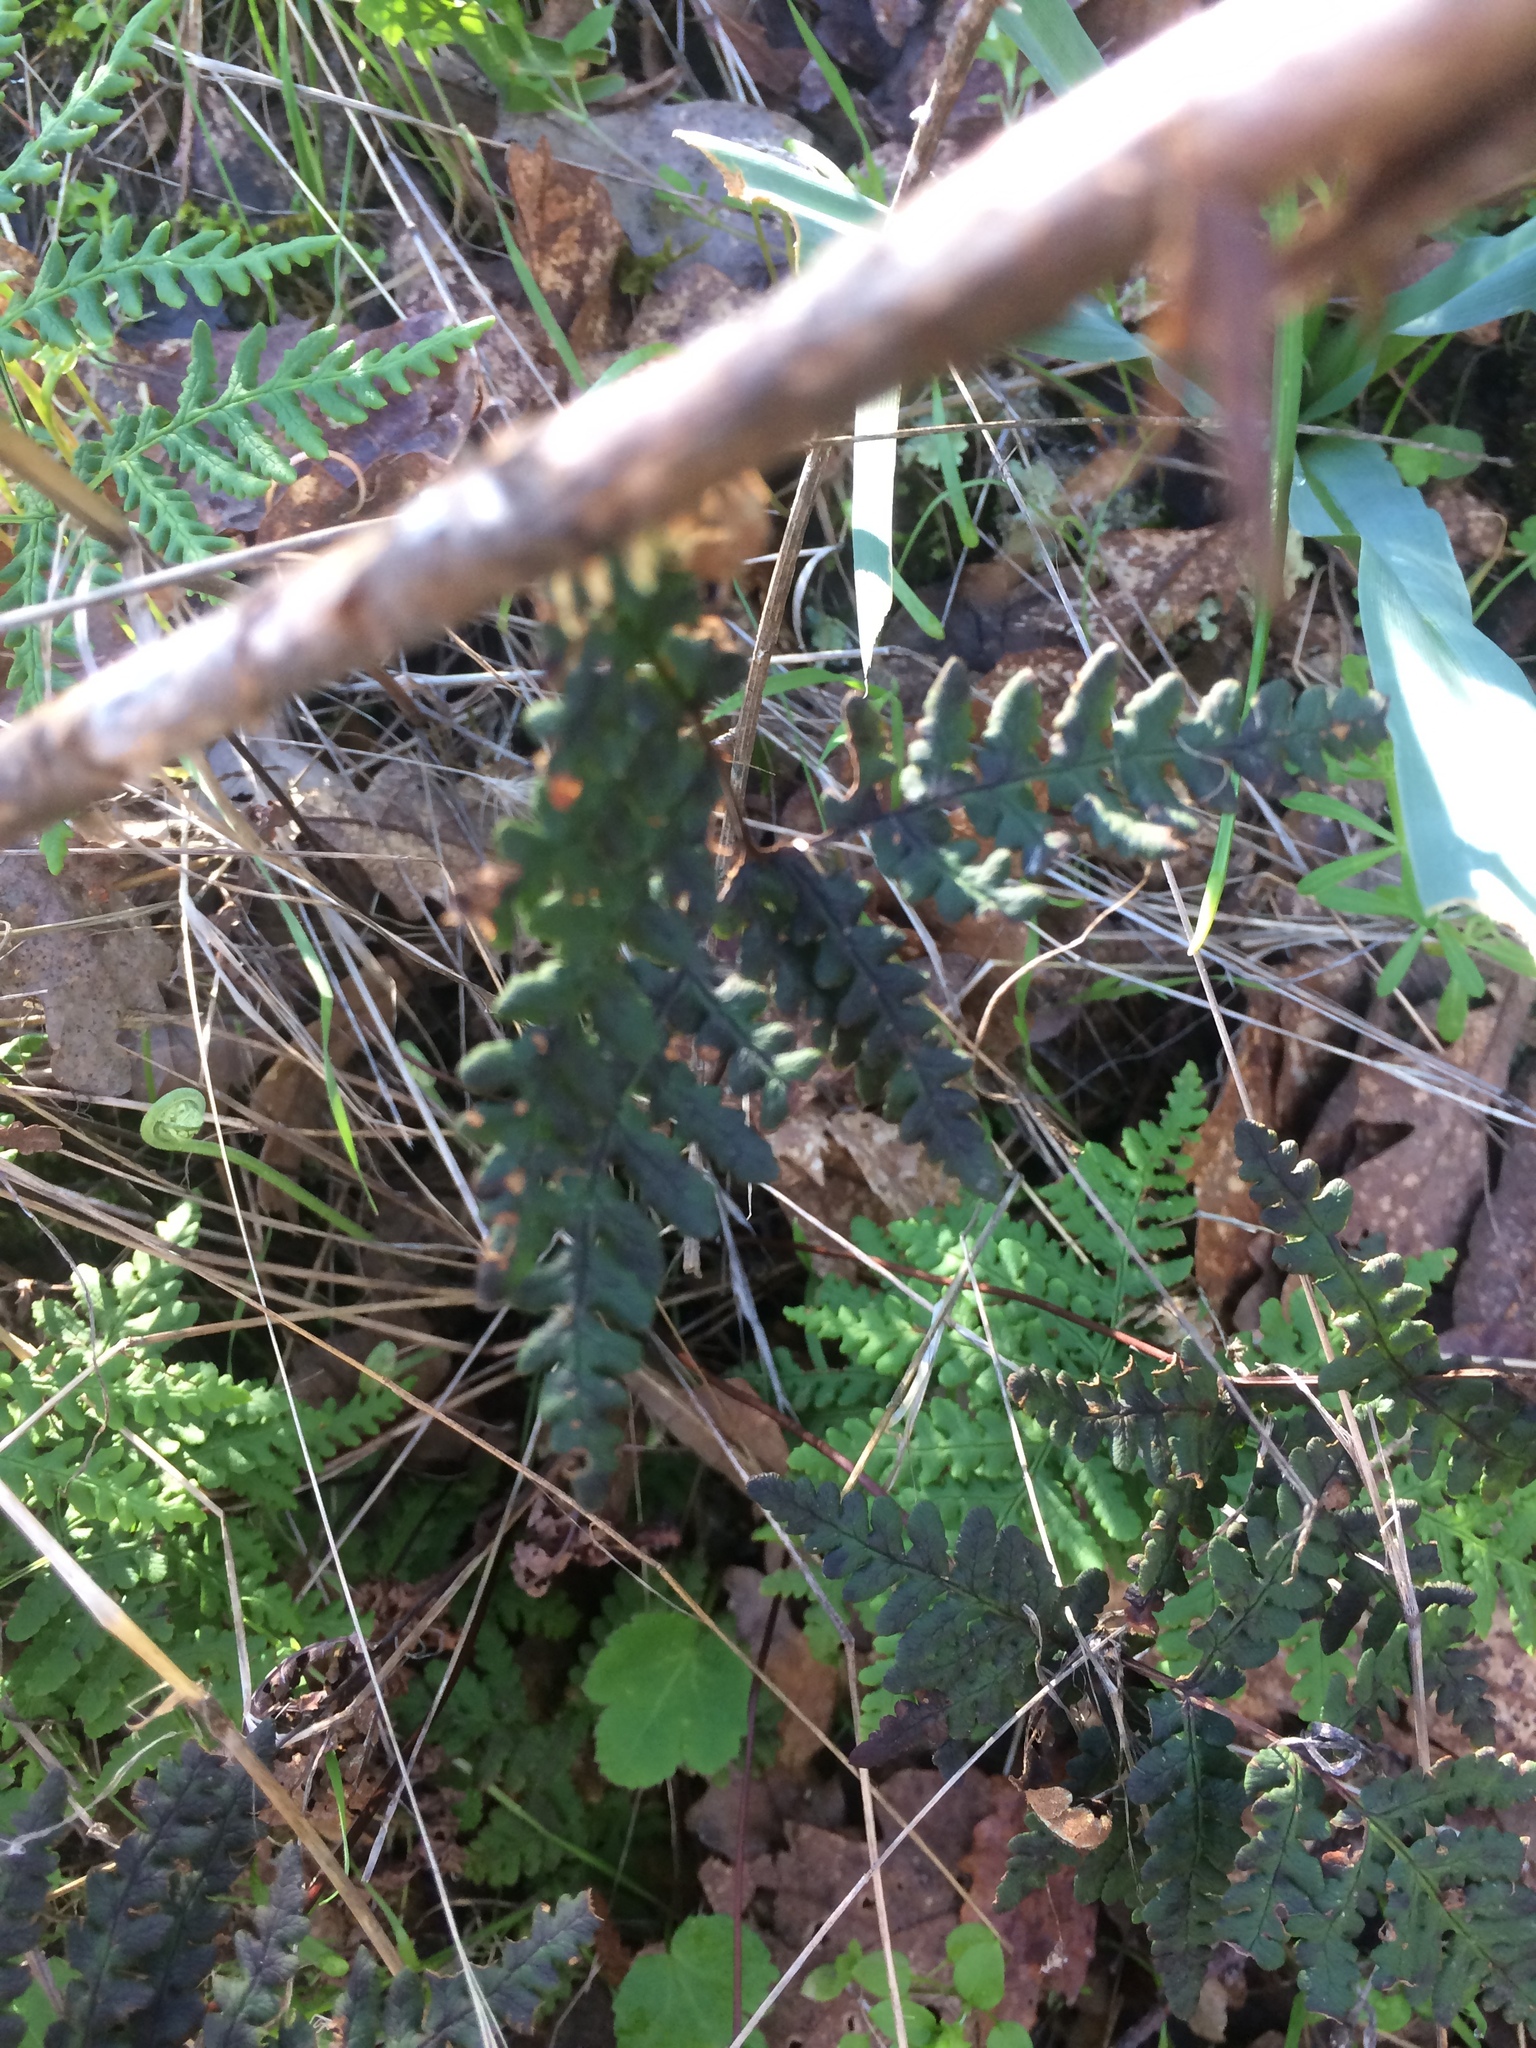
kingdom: Plantae
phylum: Tracheophyta
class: Polypodiopsida
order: Polypodiales
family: Pteridaceae
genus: Pentagramma
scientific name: Pentagramma triangularis
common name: Gold fern
